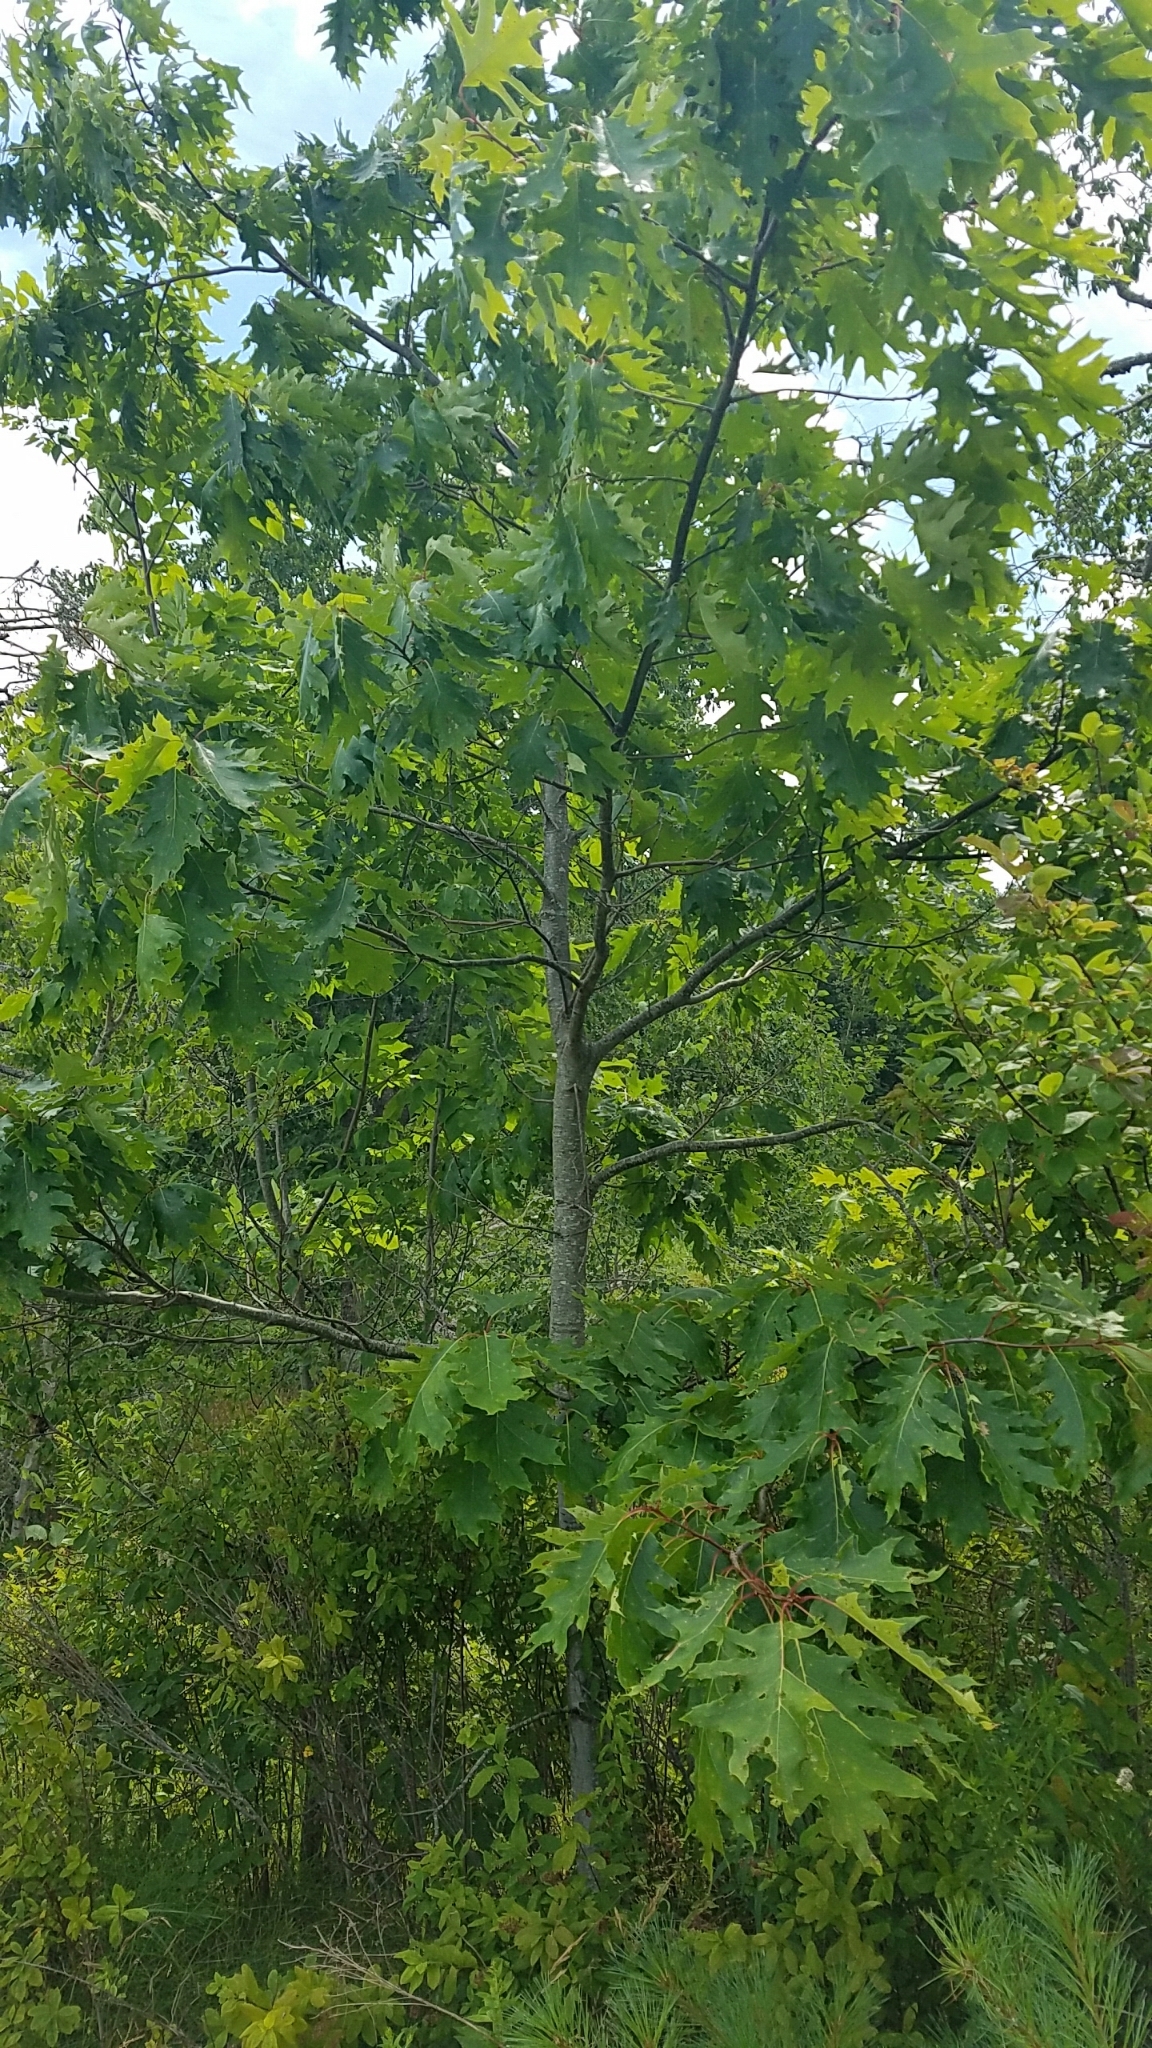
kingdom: Plantae
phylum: Tracheophyta
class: Magnoliopsida
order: Fagales
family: Fagaceae
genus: Quercus
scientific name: Quercus rubra
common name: Red oak
